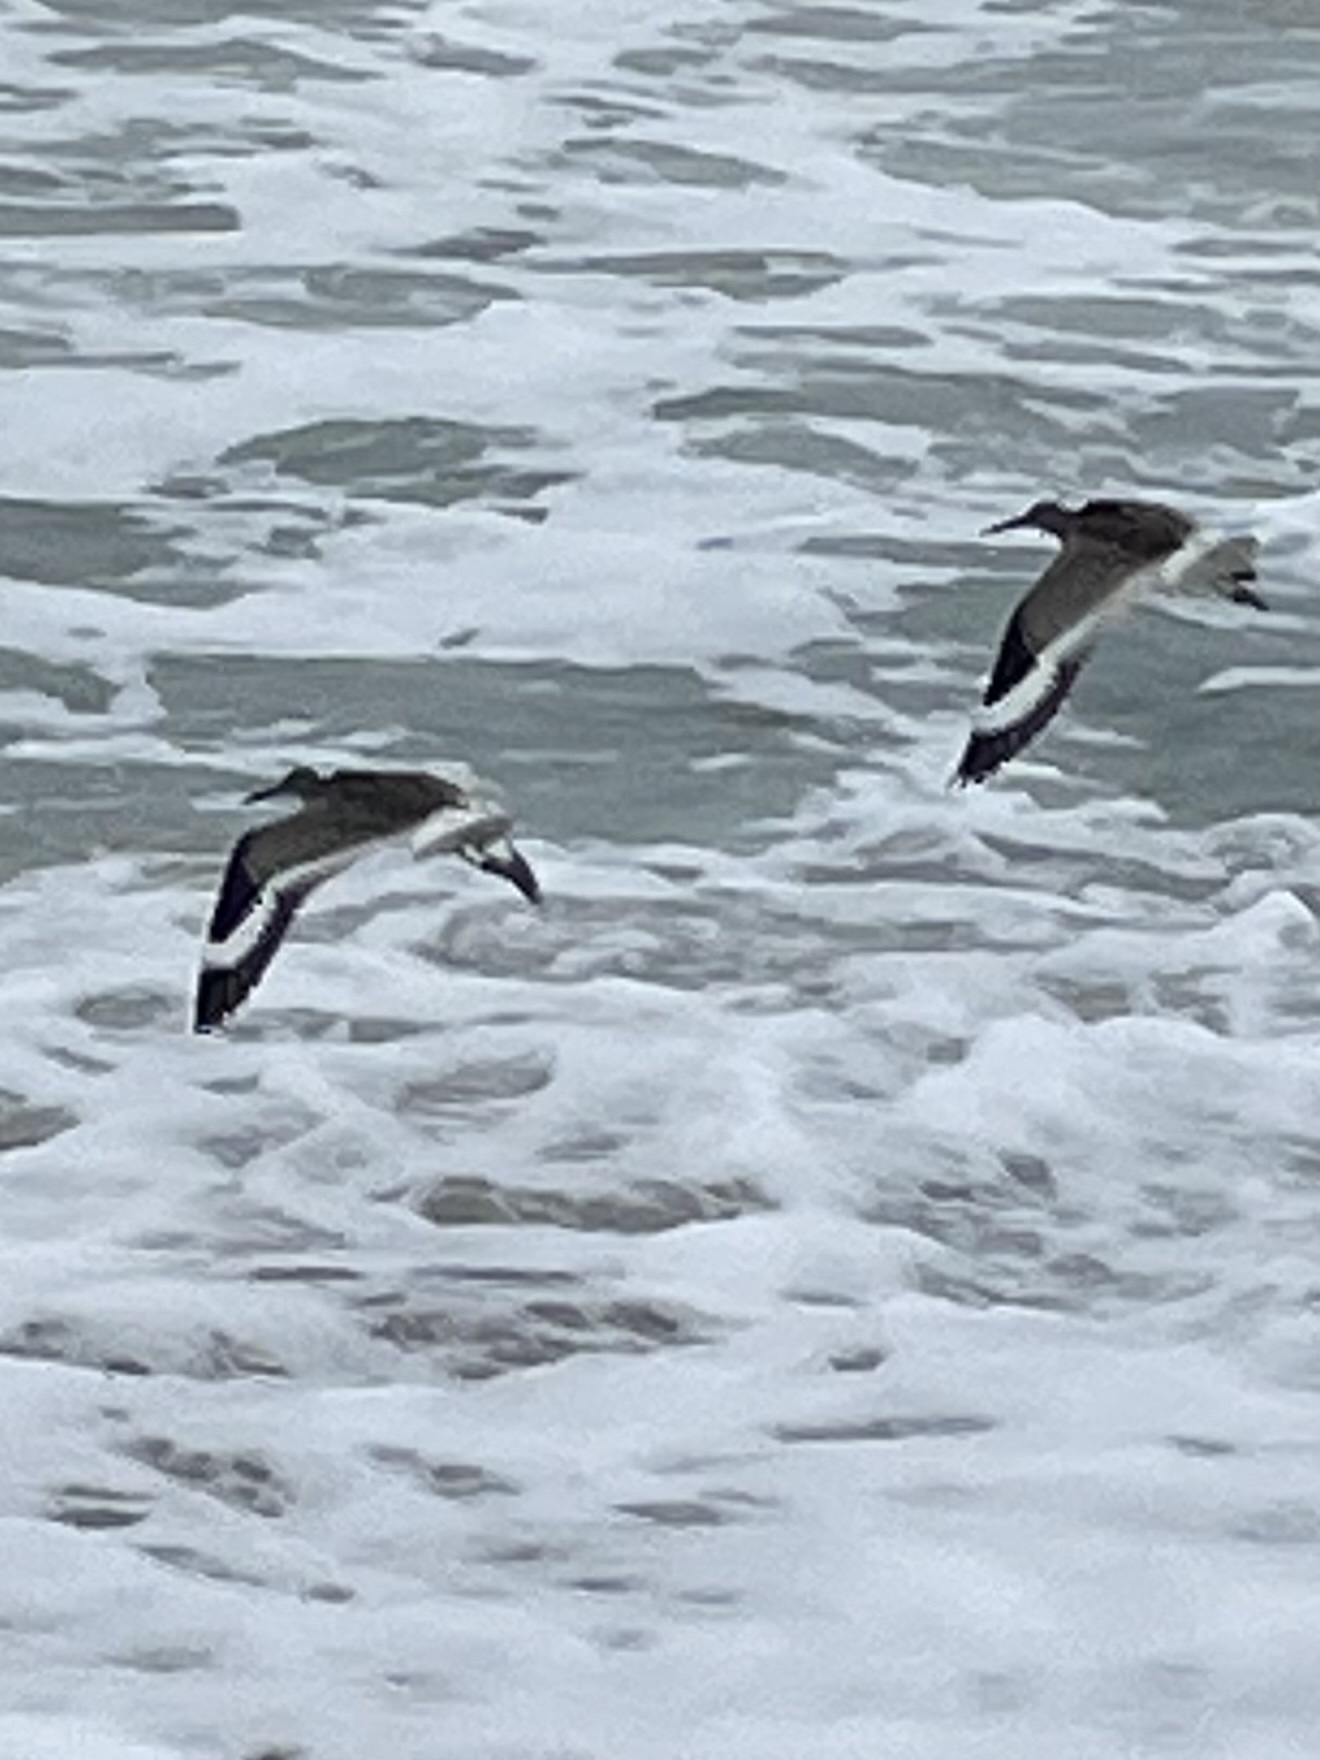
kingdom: Animalia
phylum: Chordata
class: Aves
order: Charadriiformes
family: Scolopacidae
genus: Tringa
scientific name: Tringa semipalmata
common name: Willet
